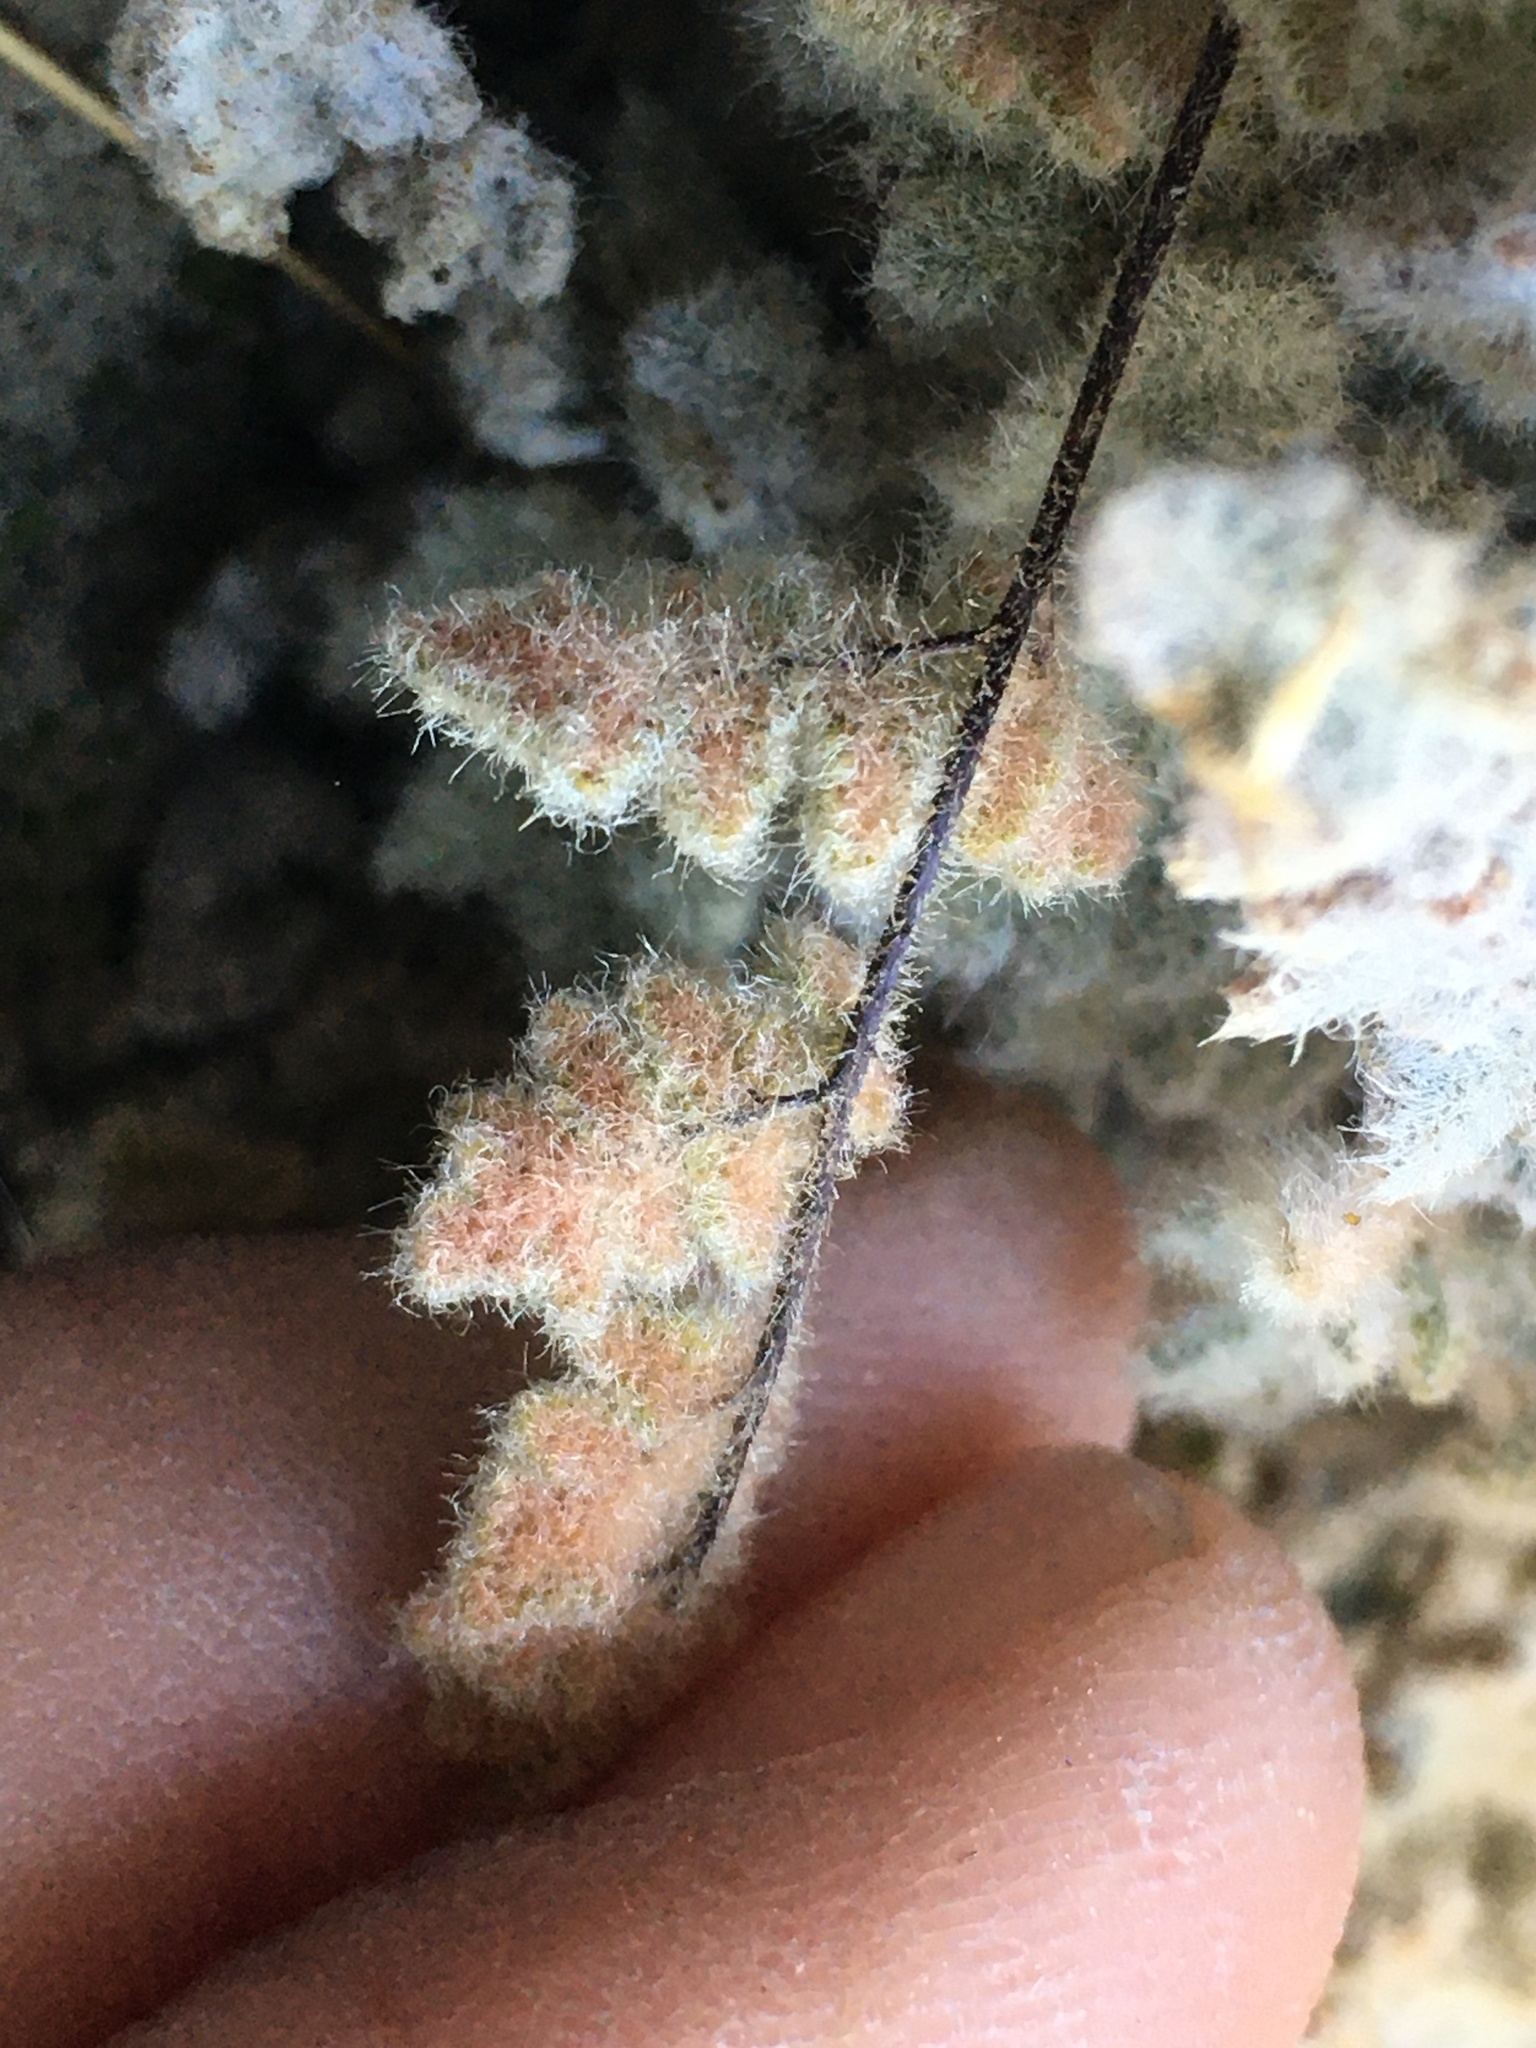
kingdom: Plantae
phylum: Tracheophyta
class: Polypodiopsida
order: Polypodiales
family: Pteridaceae
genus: Myriopteris
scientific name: Myriopteris parryi
